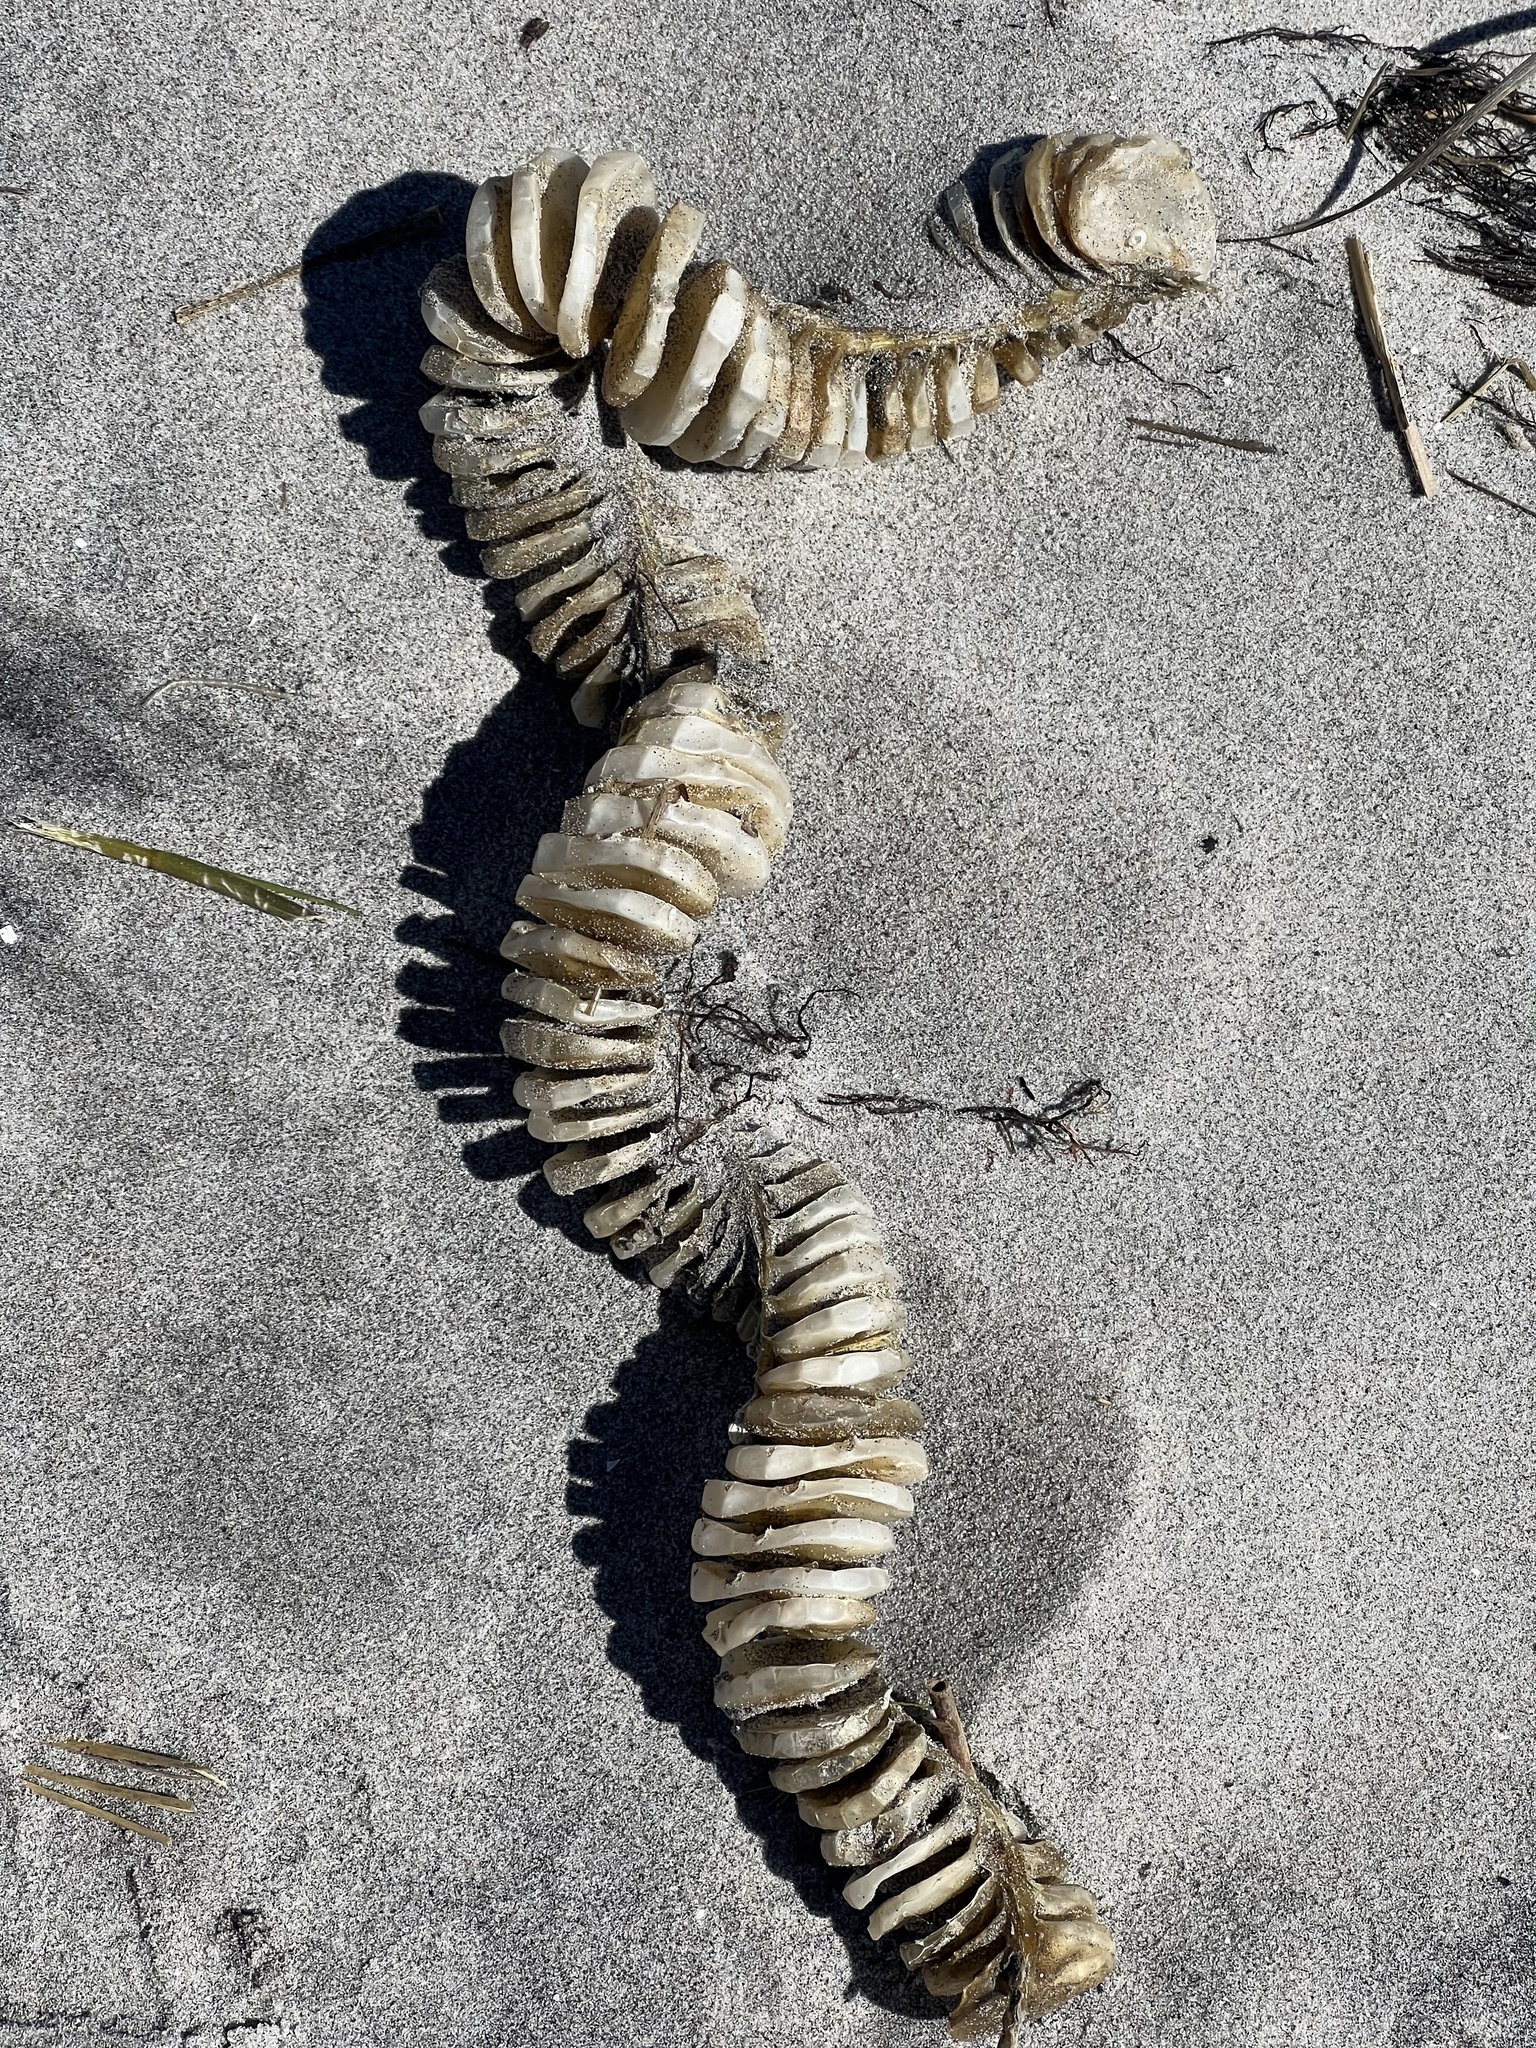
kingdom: Animalia
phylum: Mollusca
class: Gastropoda
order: Neogastropoda
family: Busyconidae
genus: Busycon
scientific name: Busycon carica
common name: Knobbed whelk
